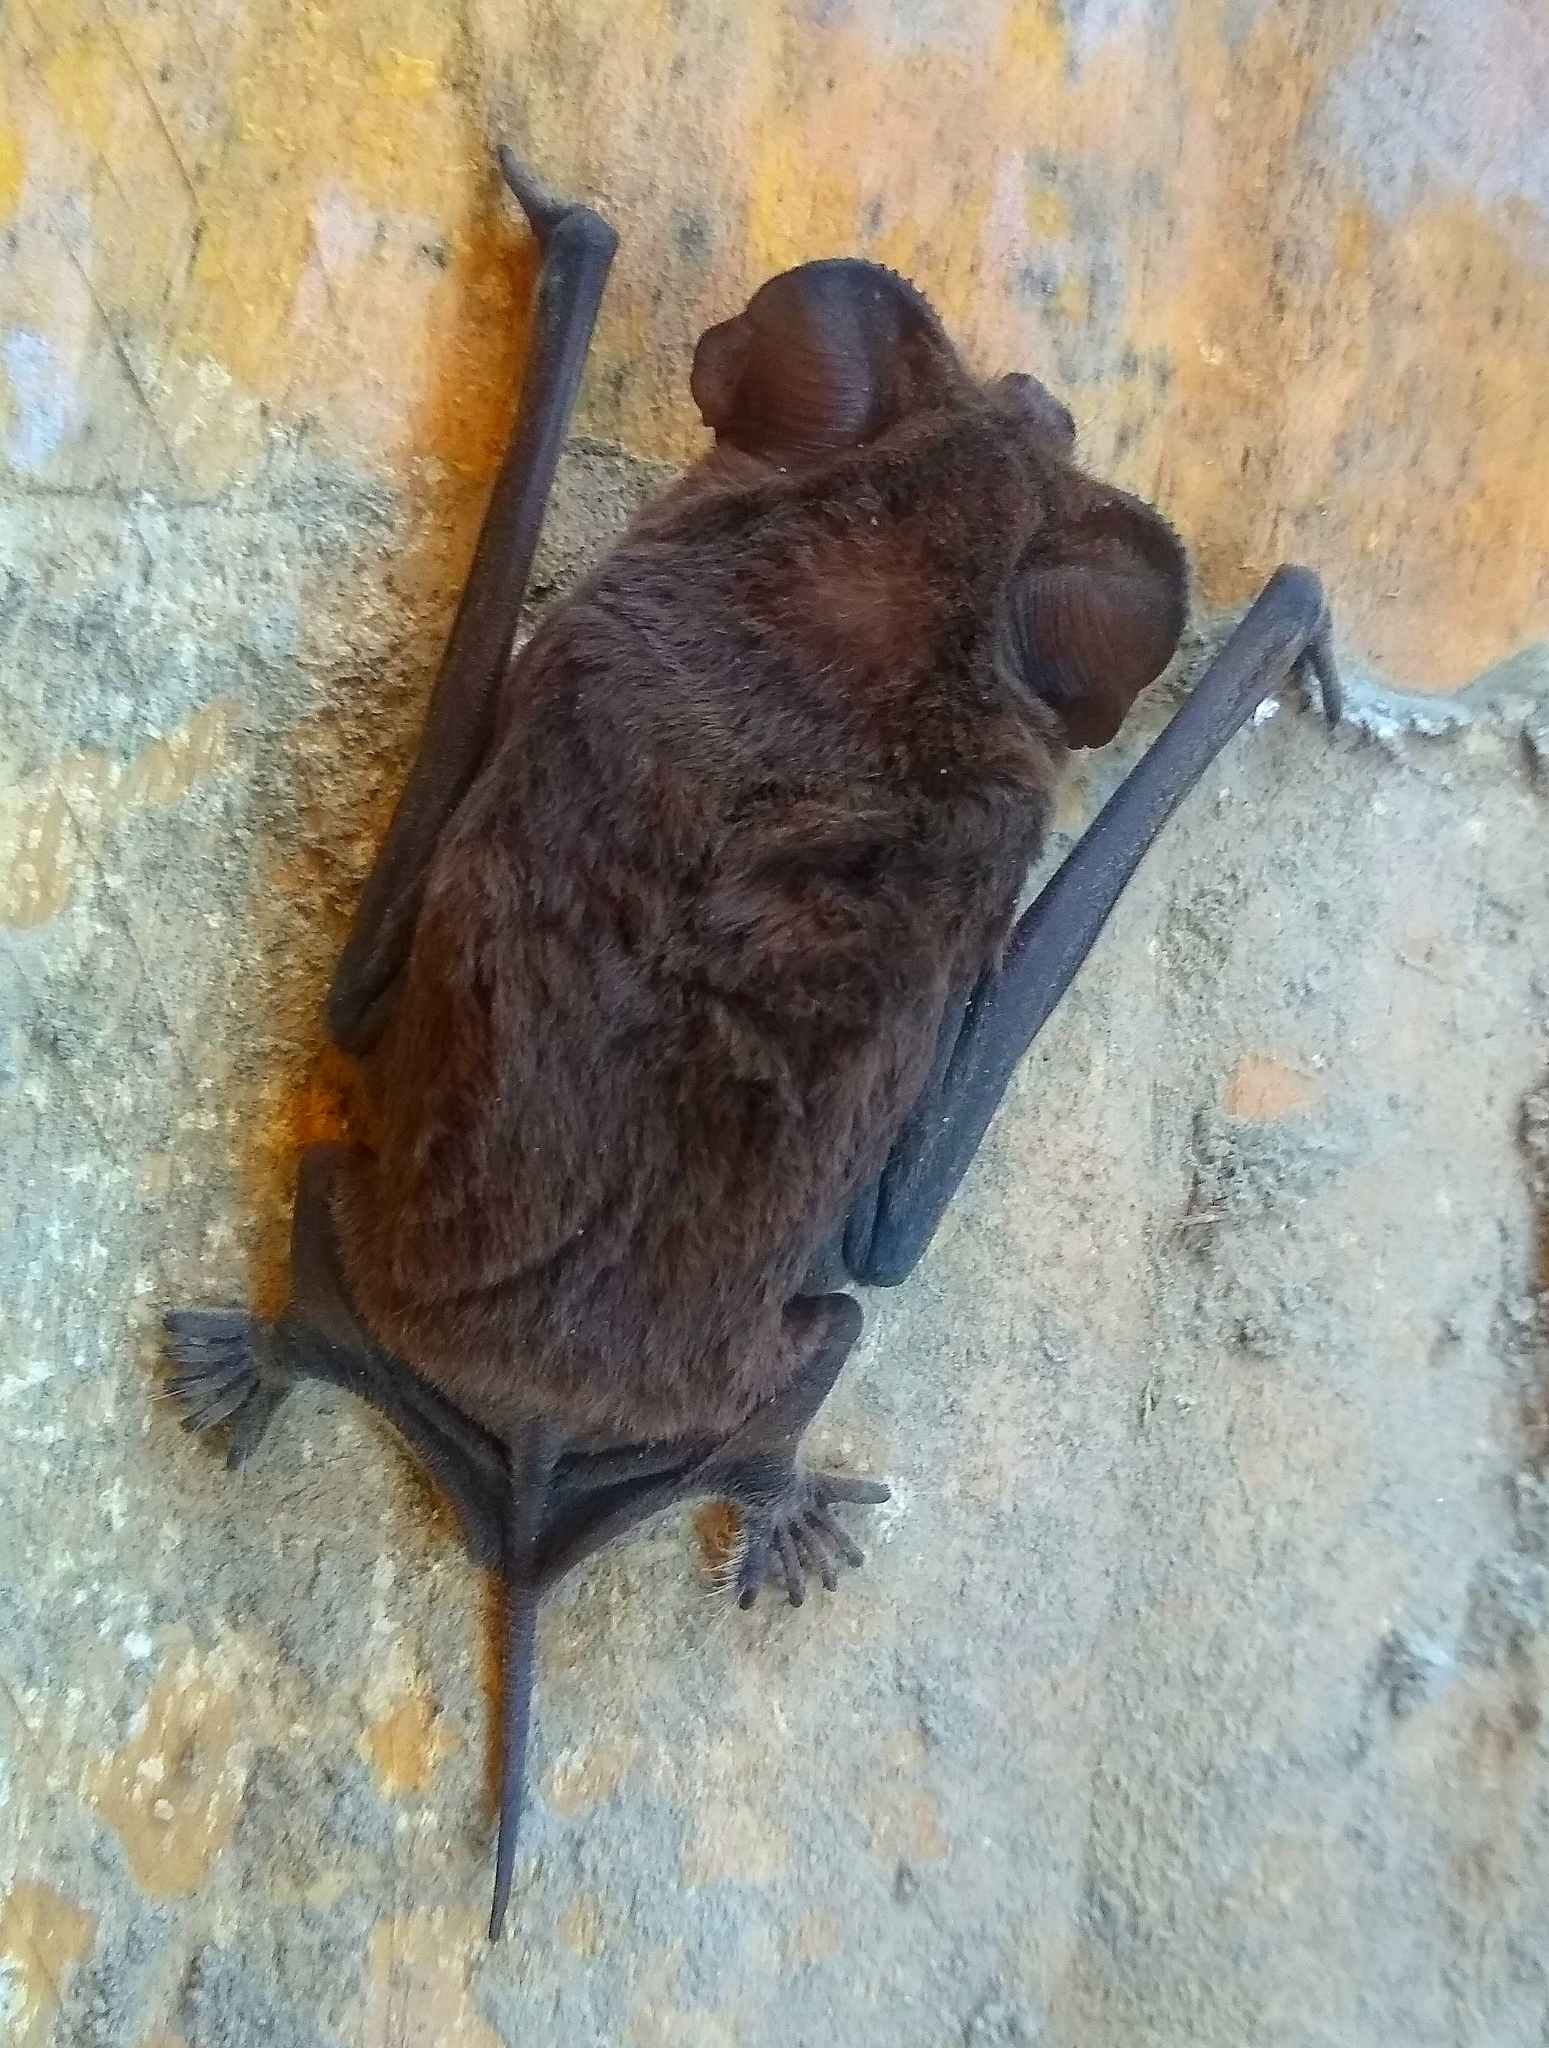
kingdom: Animalia
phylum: Chordata
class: Mammalia
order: Chiroptera
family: Molossidae
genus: Tadarida
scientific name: Tadarida brasiliensis
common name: Mexican free-tailed bat
